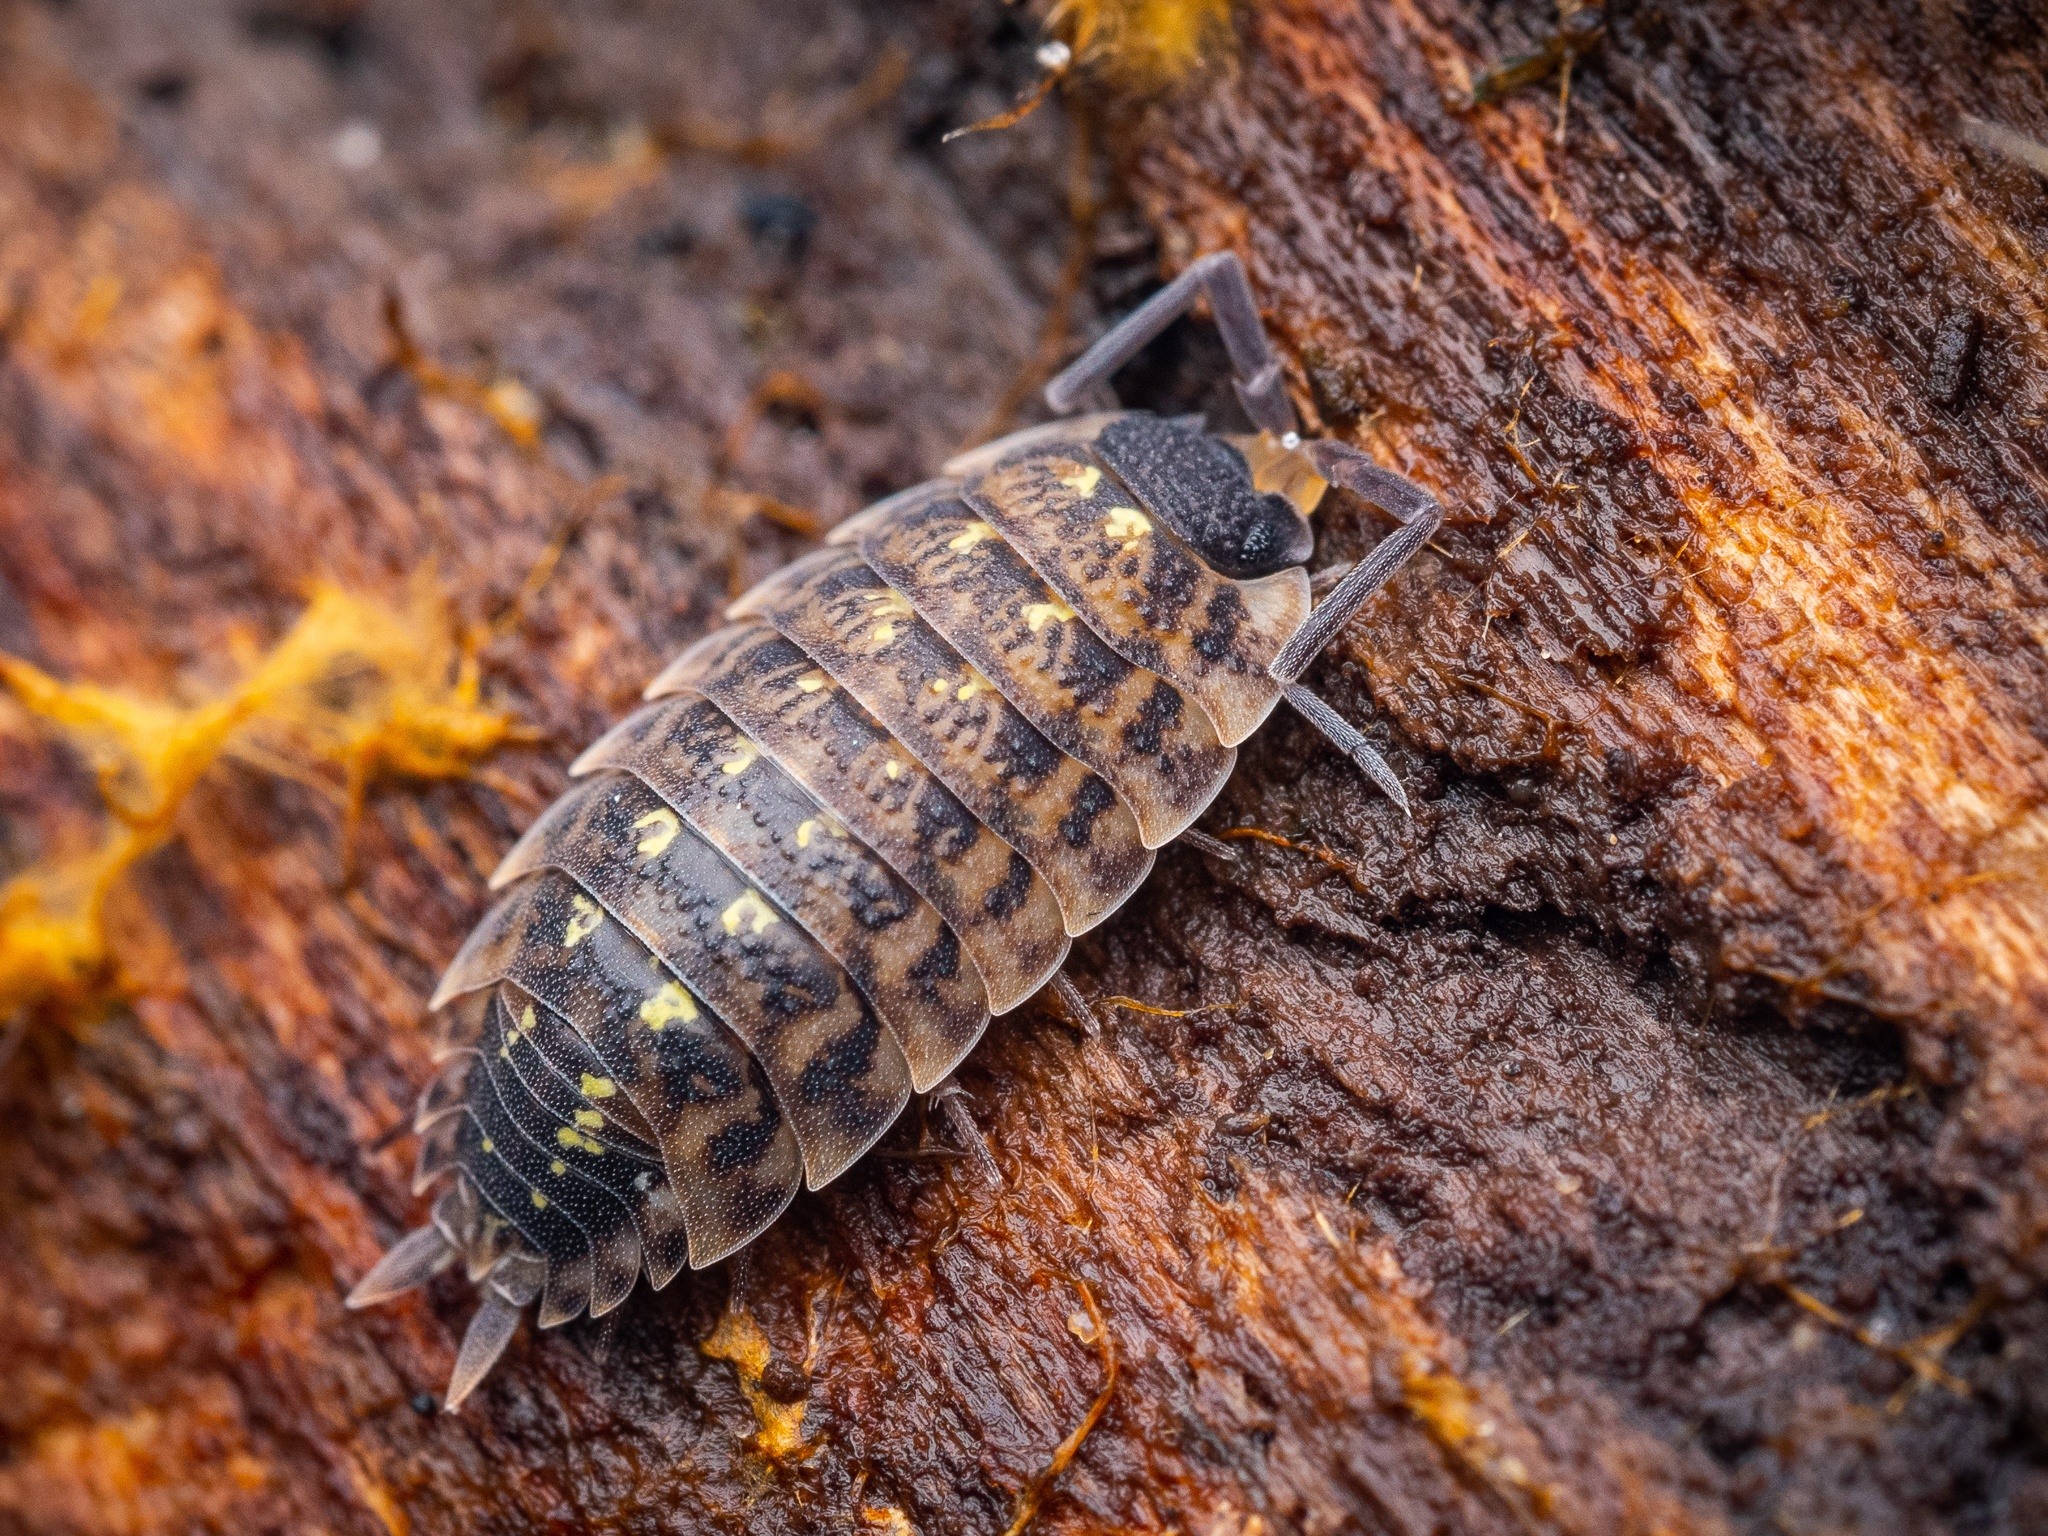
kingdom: Animalia
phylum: Arthropoda
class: Malacostraca
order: Isopoda
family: Porcellionidae
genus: Porcellio
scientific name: Porcellio spinicornis
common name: Painted woodlouse
